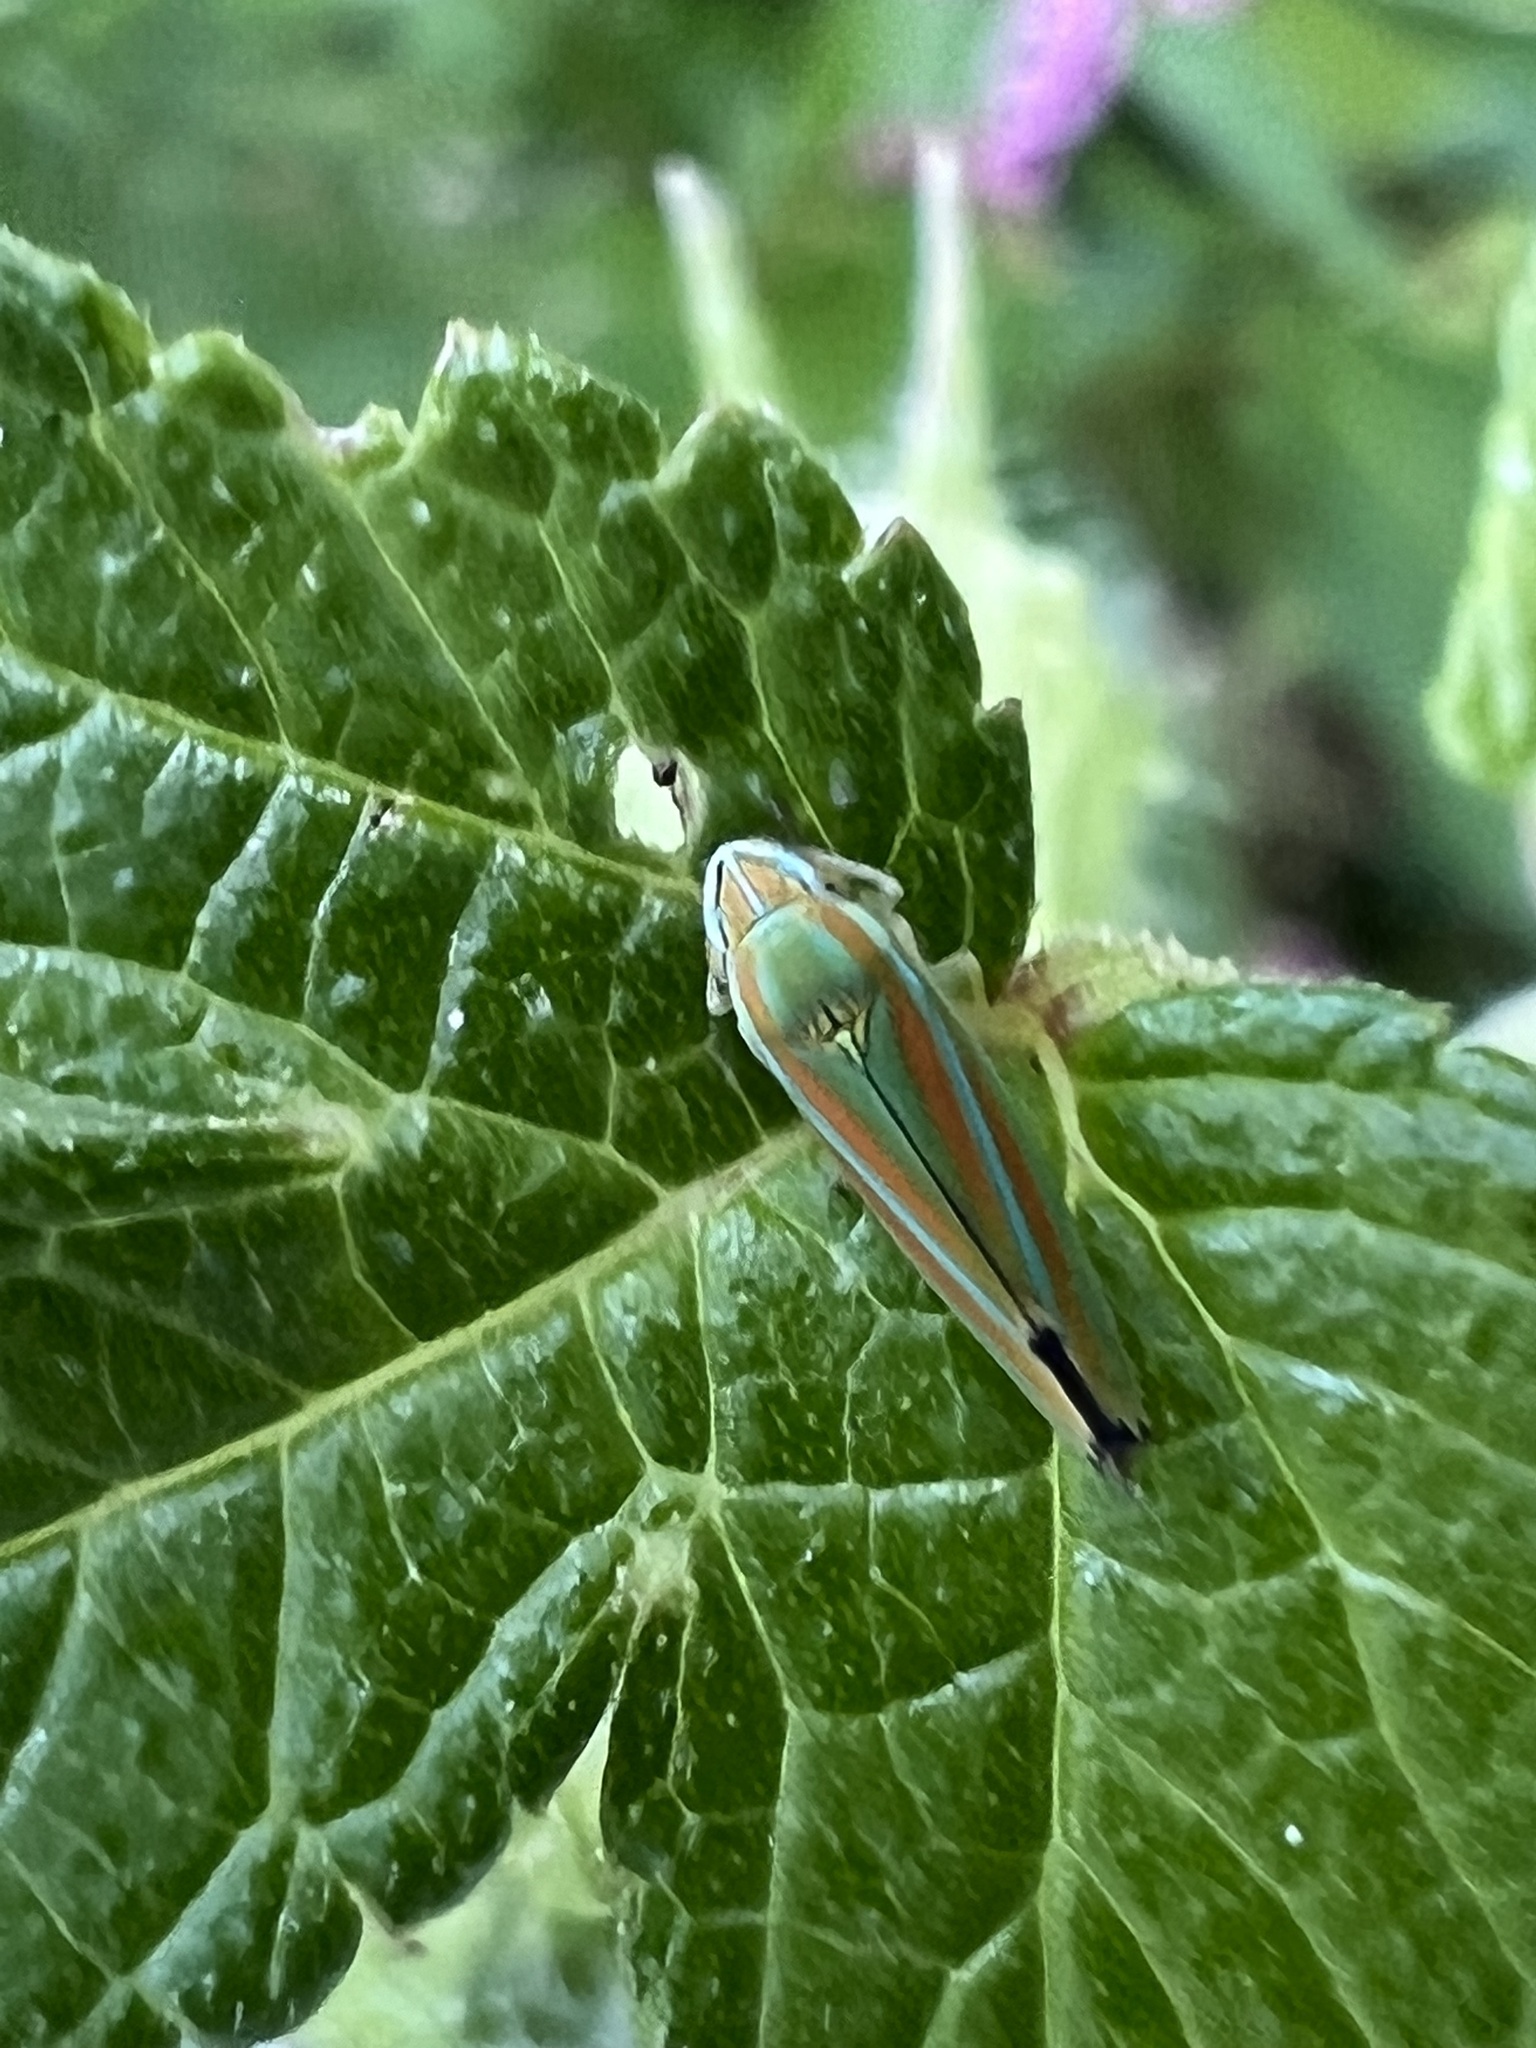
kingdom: Animalia
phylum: Arthropoda
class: Insecta
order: Hemiptera
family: Cicadellidae
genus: Graphocephala
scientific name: Graphocephala versuta
